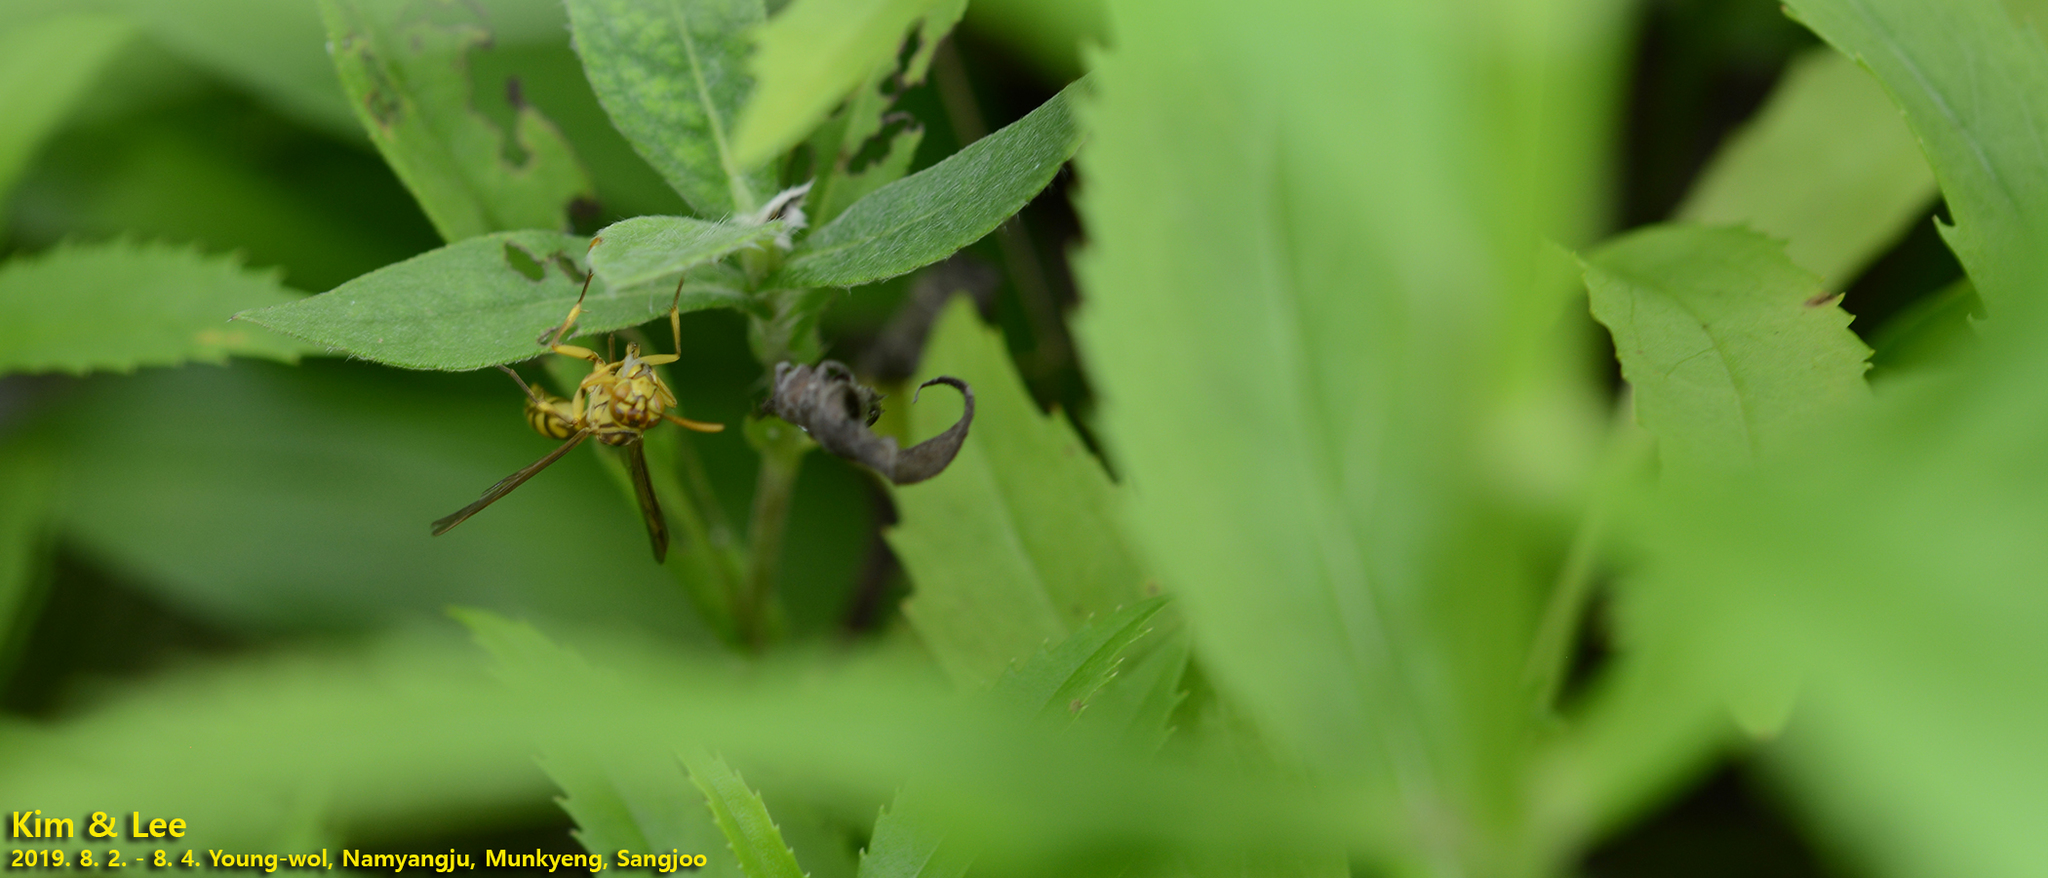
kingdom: Animalia
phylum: Arthropoda
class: Insecta
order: Hymenoptera
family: Vespidae
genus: Parapolybia
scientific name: Parapolybia varia
